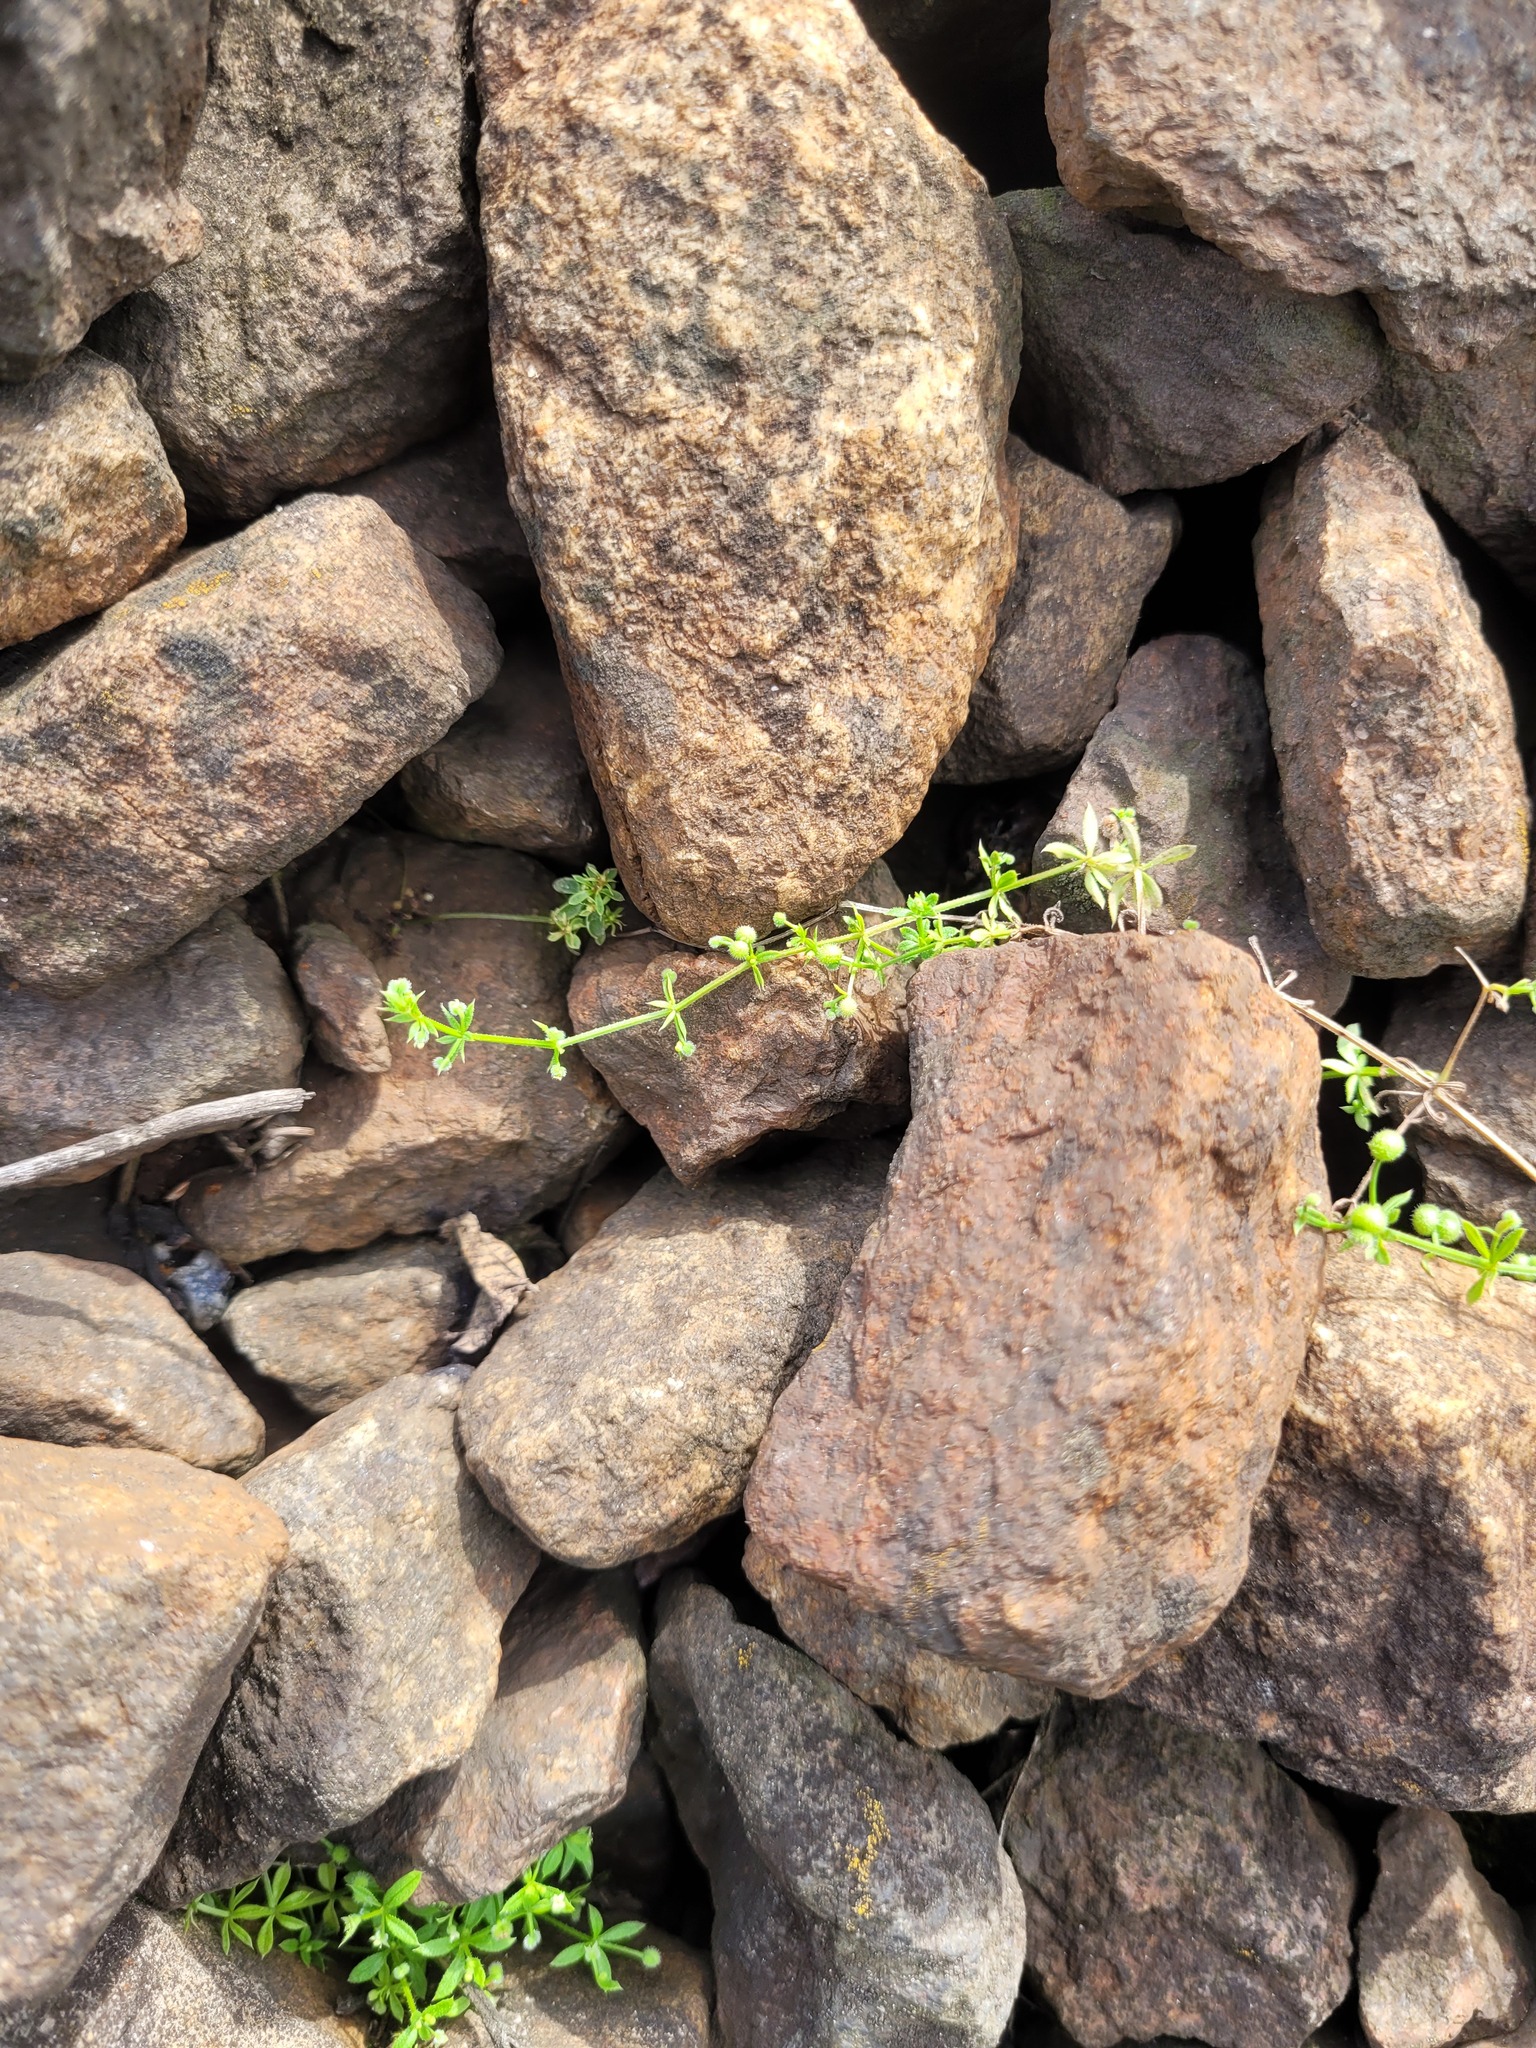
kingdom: Plantae
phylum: Tracheophyta
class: Magnoliopsida
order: Gentianales
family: Rubiaceae
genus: Galium
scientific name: Galium
